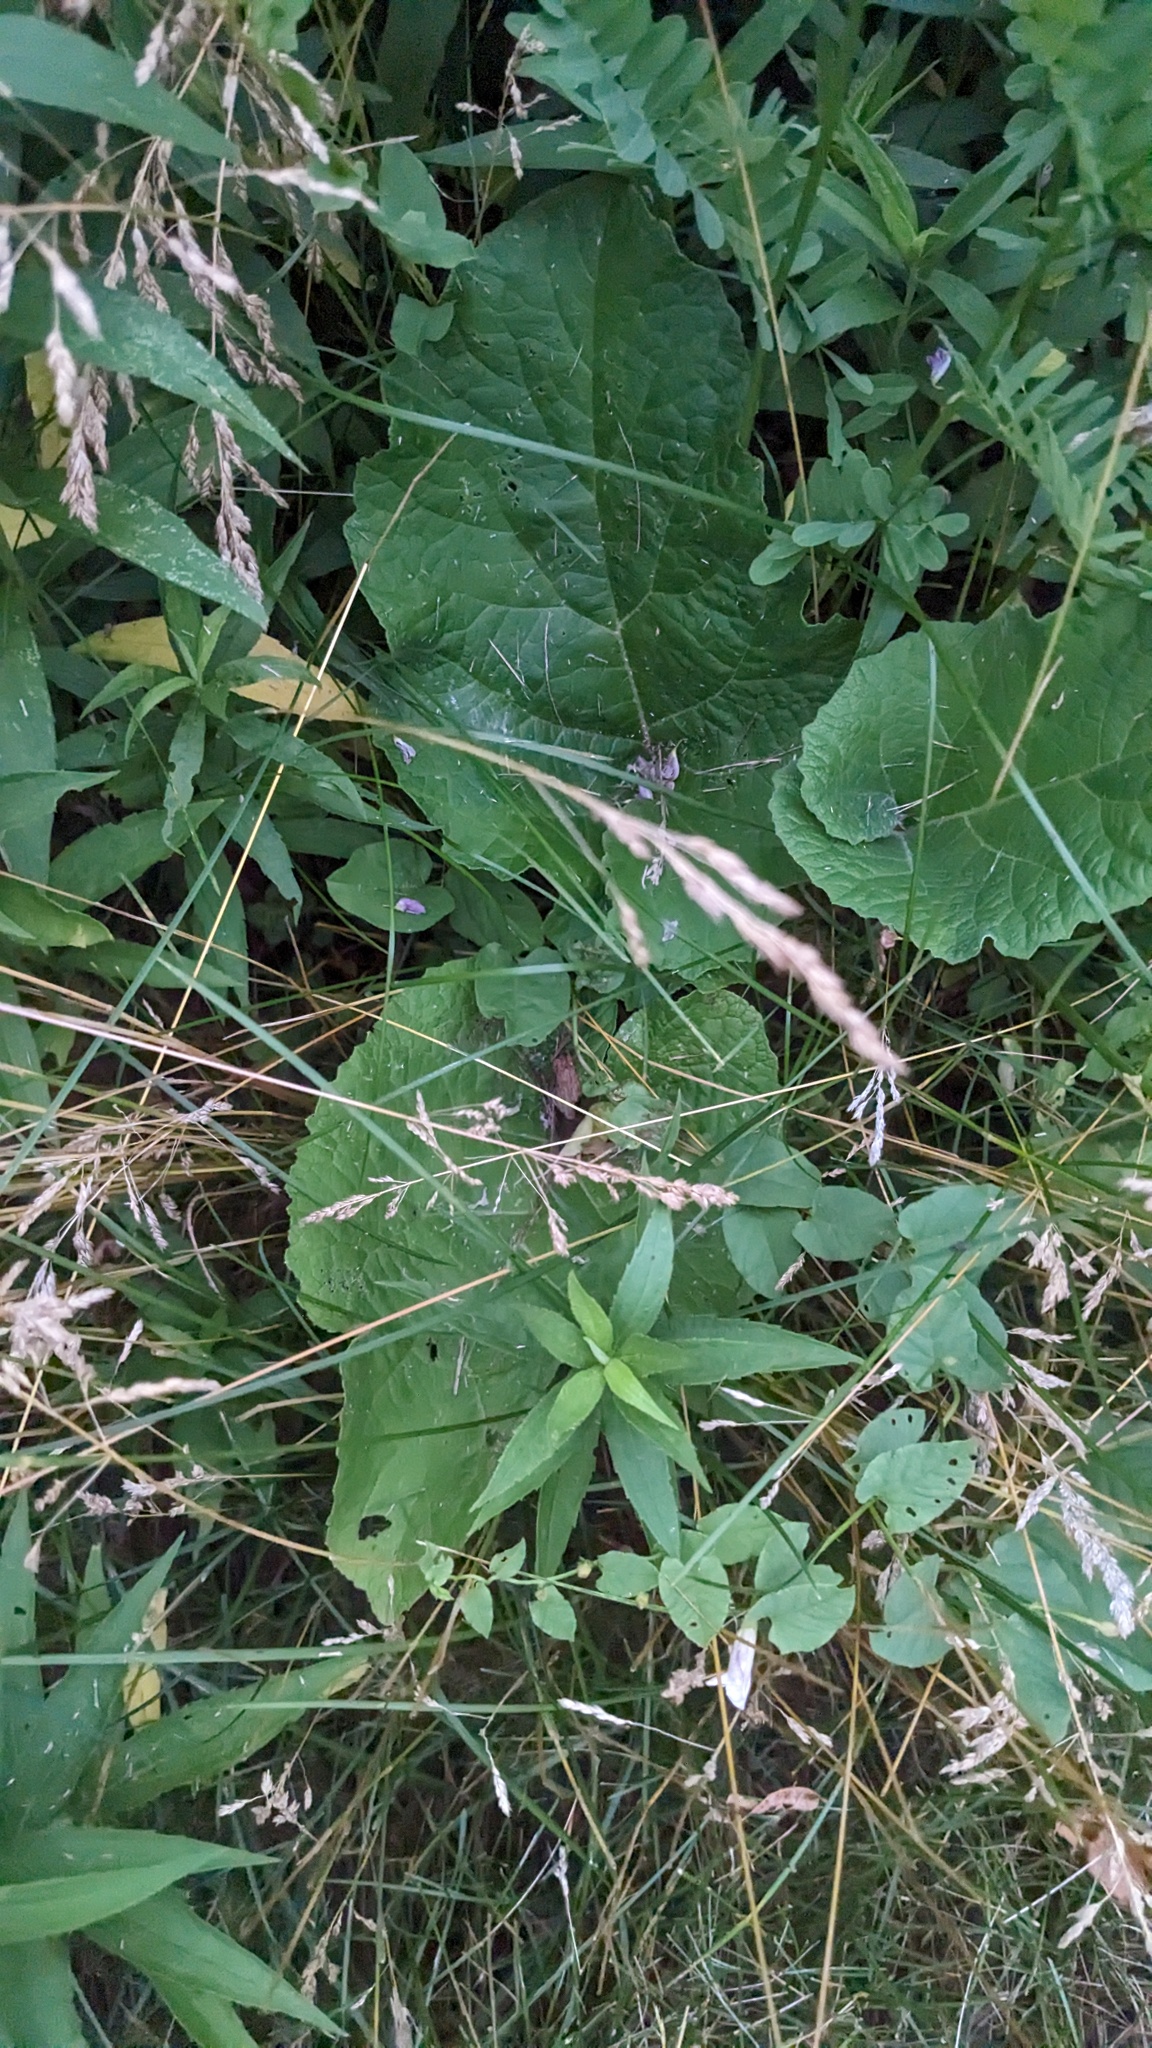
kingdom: Plantae
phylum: Tracheophyta
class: Magnoliopsida
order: Asterales
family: Asteraceae
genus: Arctium
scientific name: Arctium
